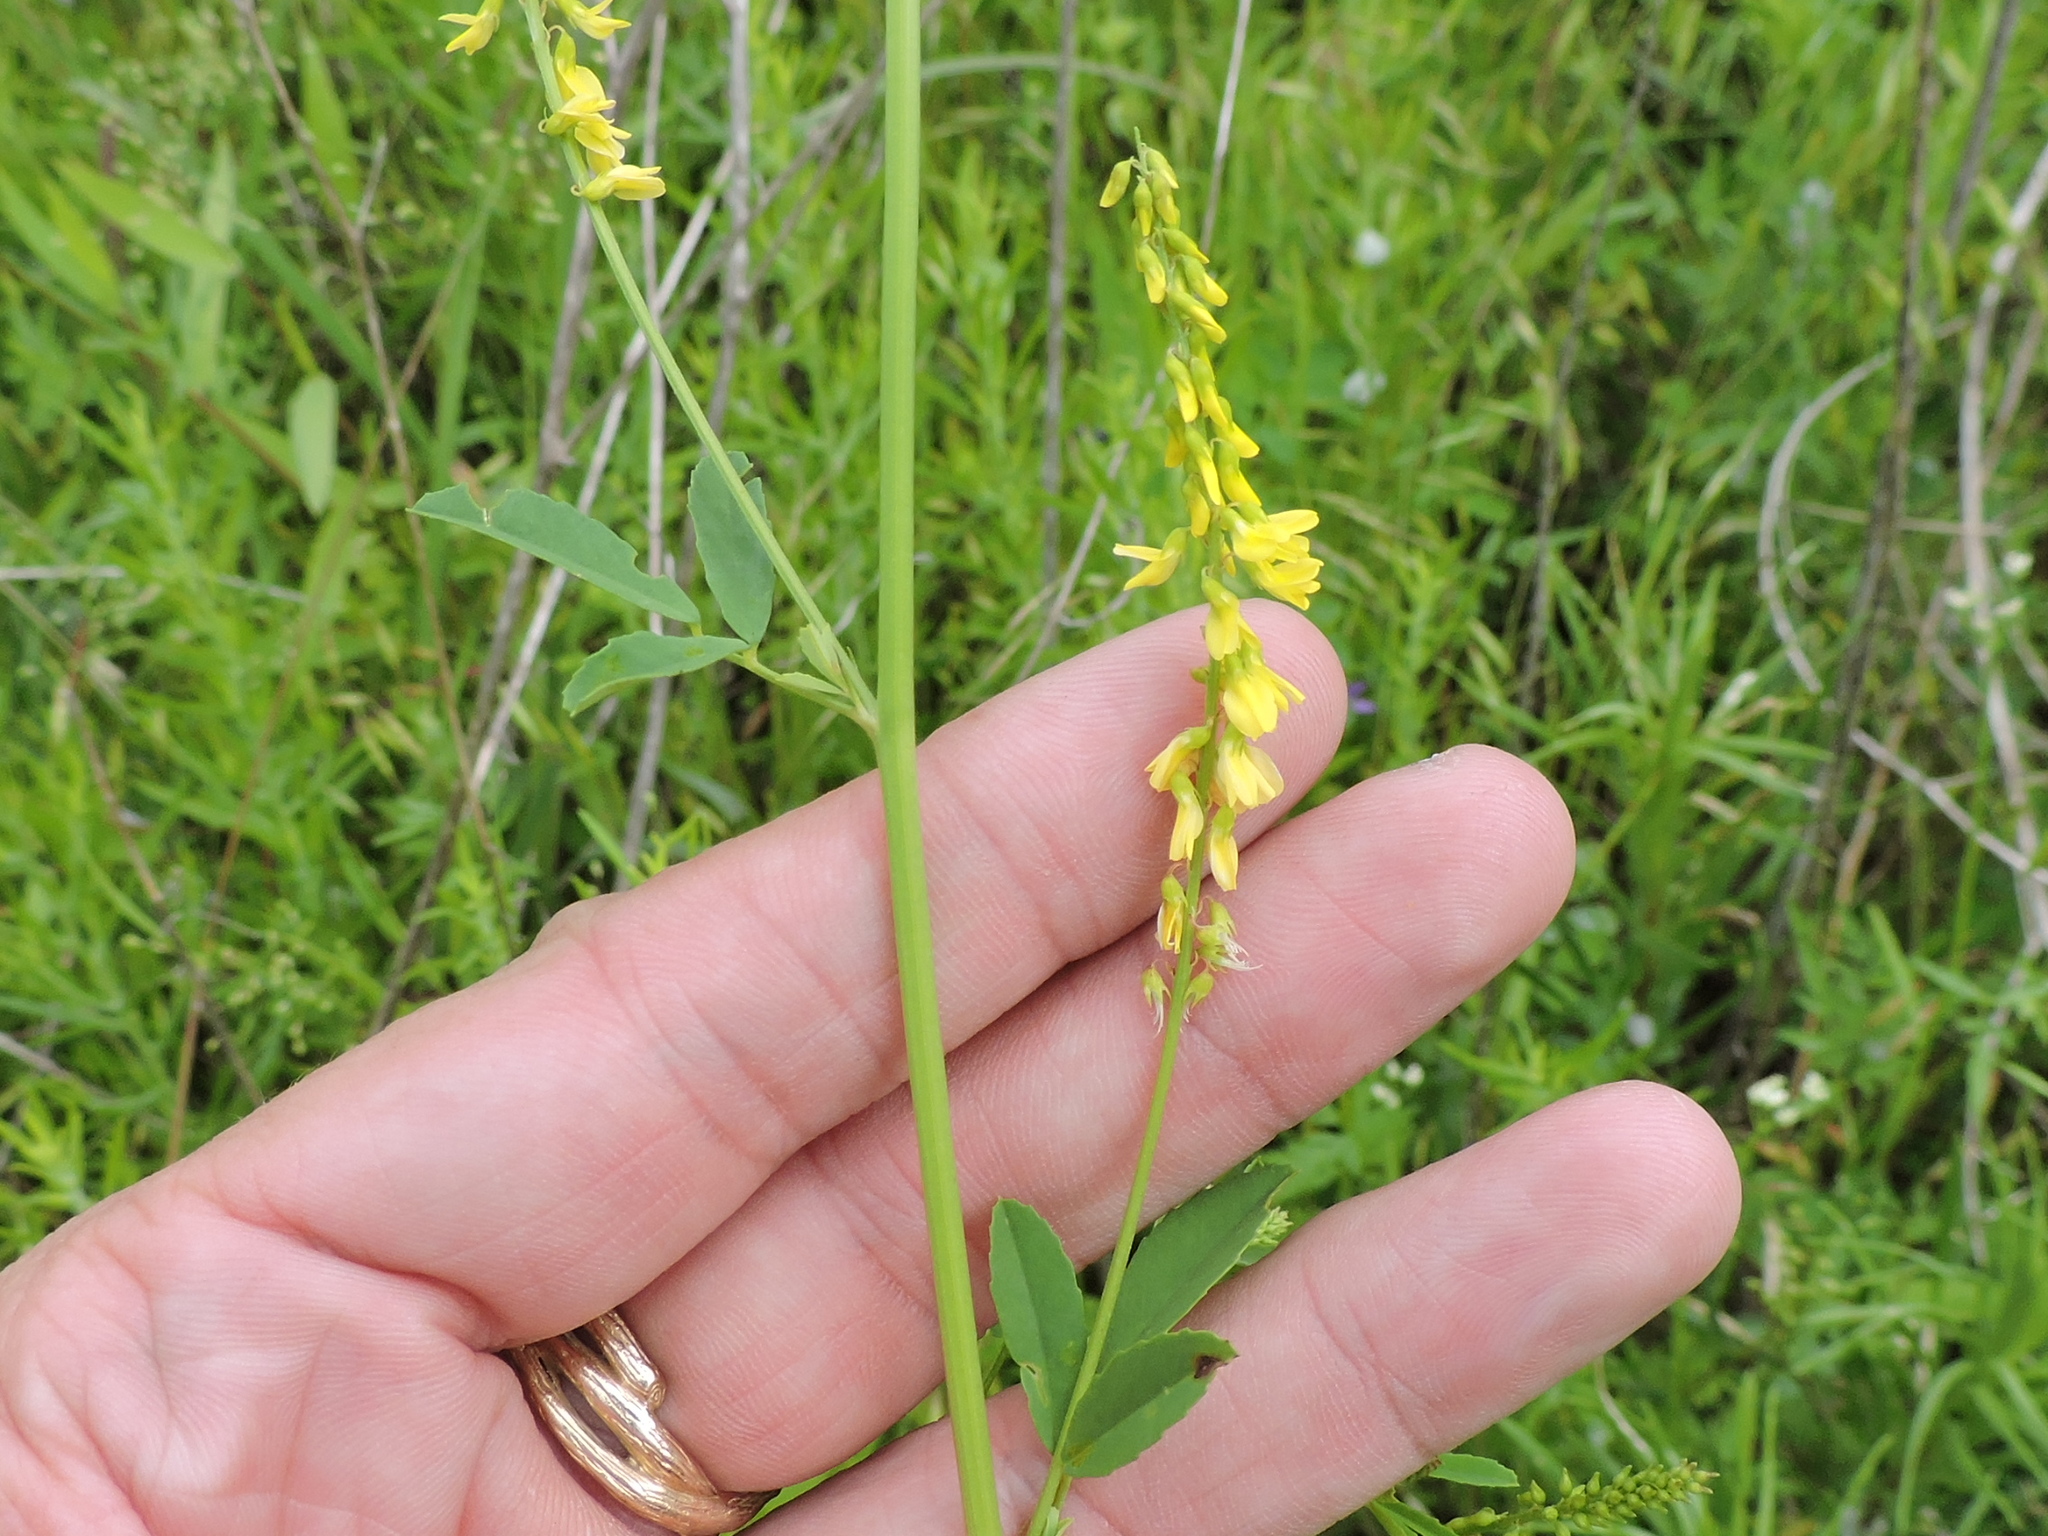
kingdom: Plantae
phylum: Tracheophyta
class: Magnoliopsida
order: Fabales
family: Fabaceae
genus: Melilotus
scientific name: Melilotus officinalis
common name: Sweetclover
